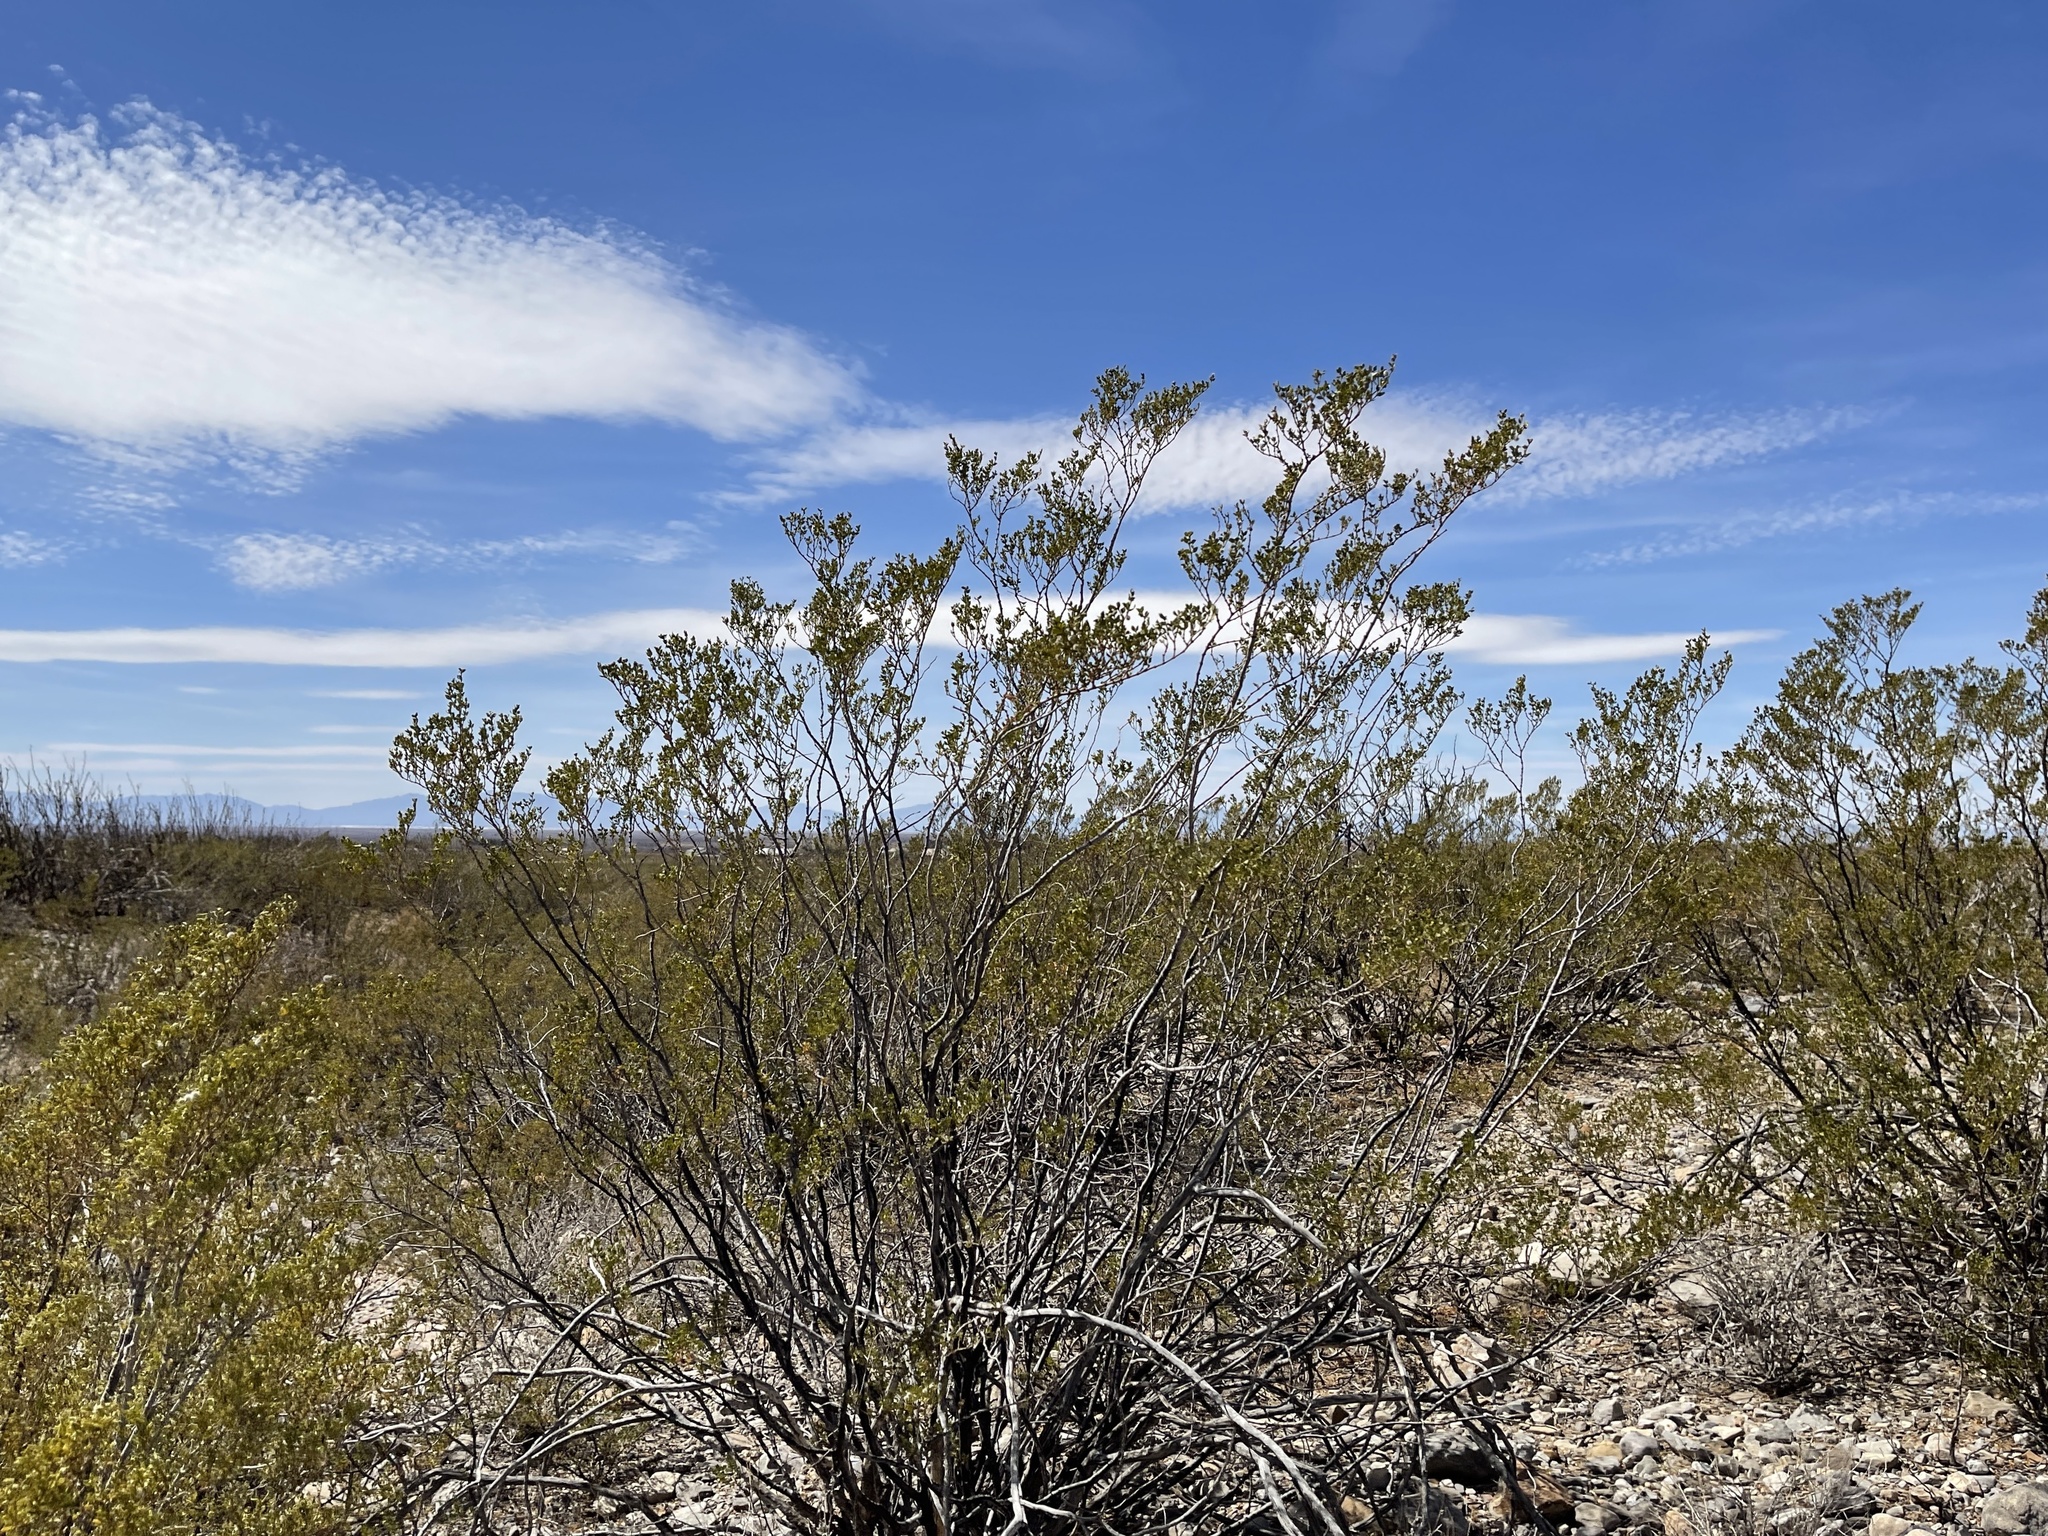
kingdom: Plantae
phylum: Tracheophyta
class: Magnoliopsida
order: Zygophyllales
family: Zygophyllaceae
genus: Larrea
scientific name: Larrea tridentata
